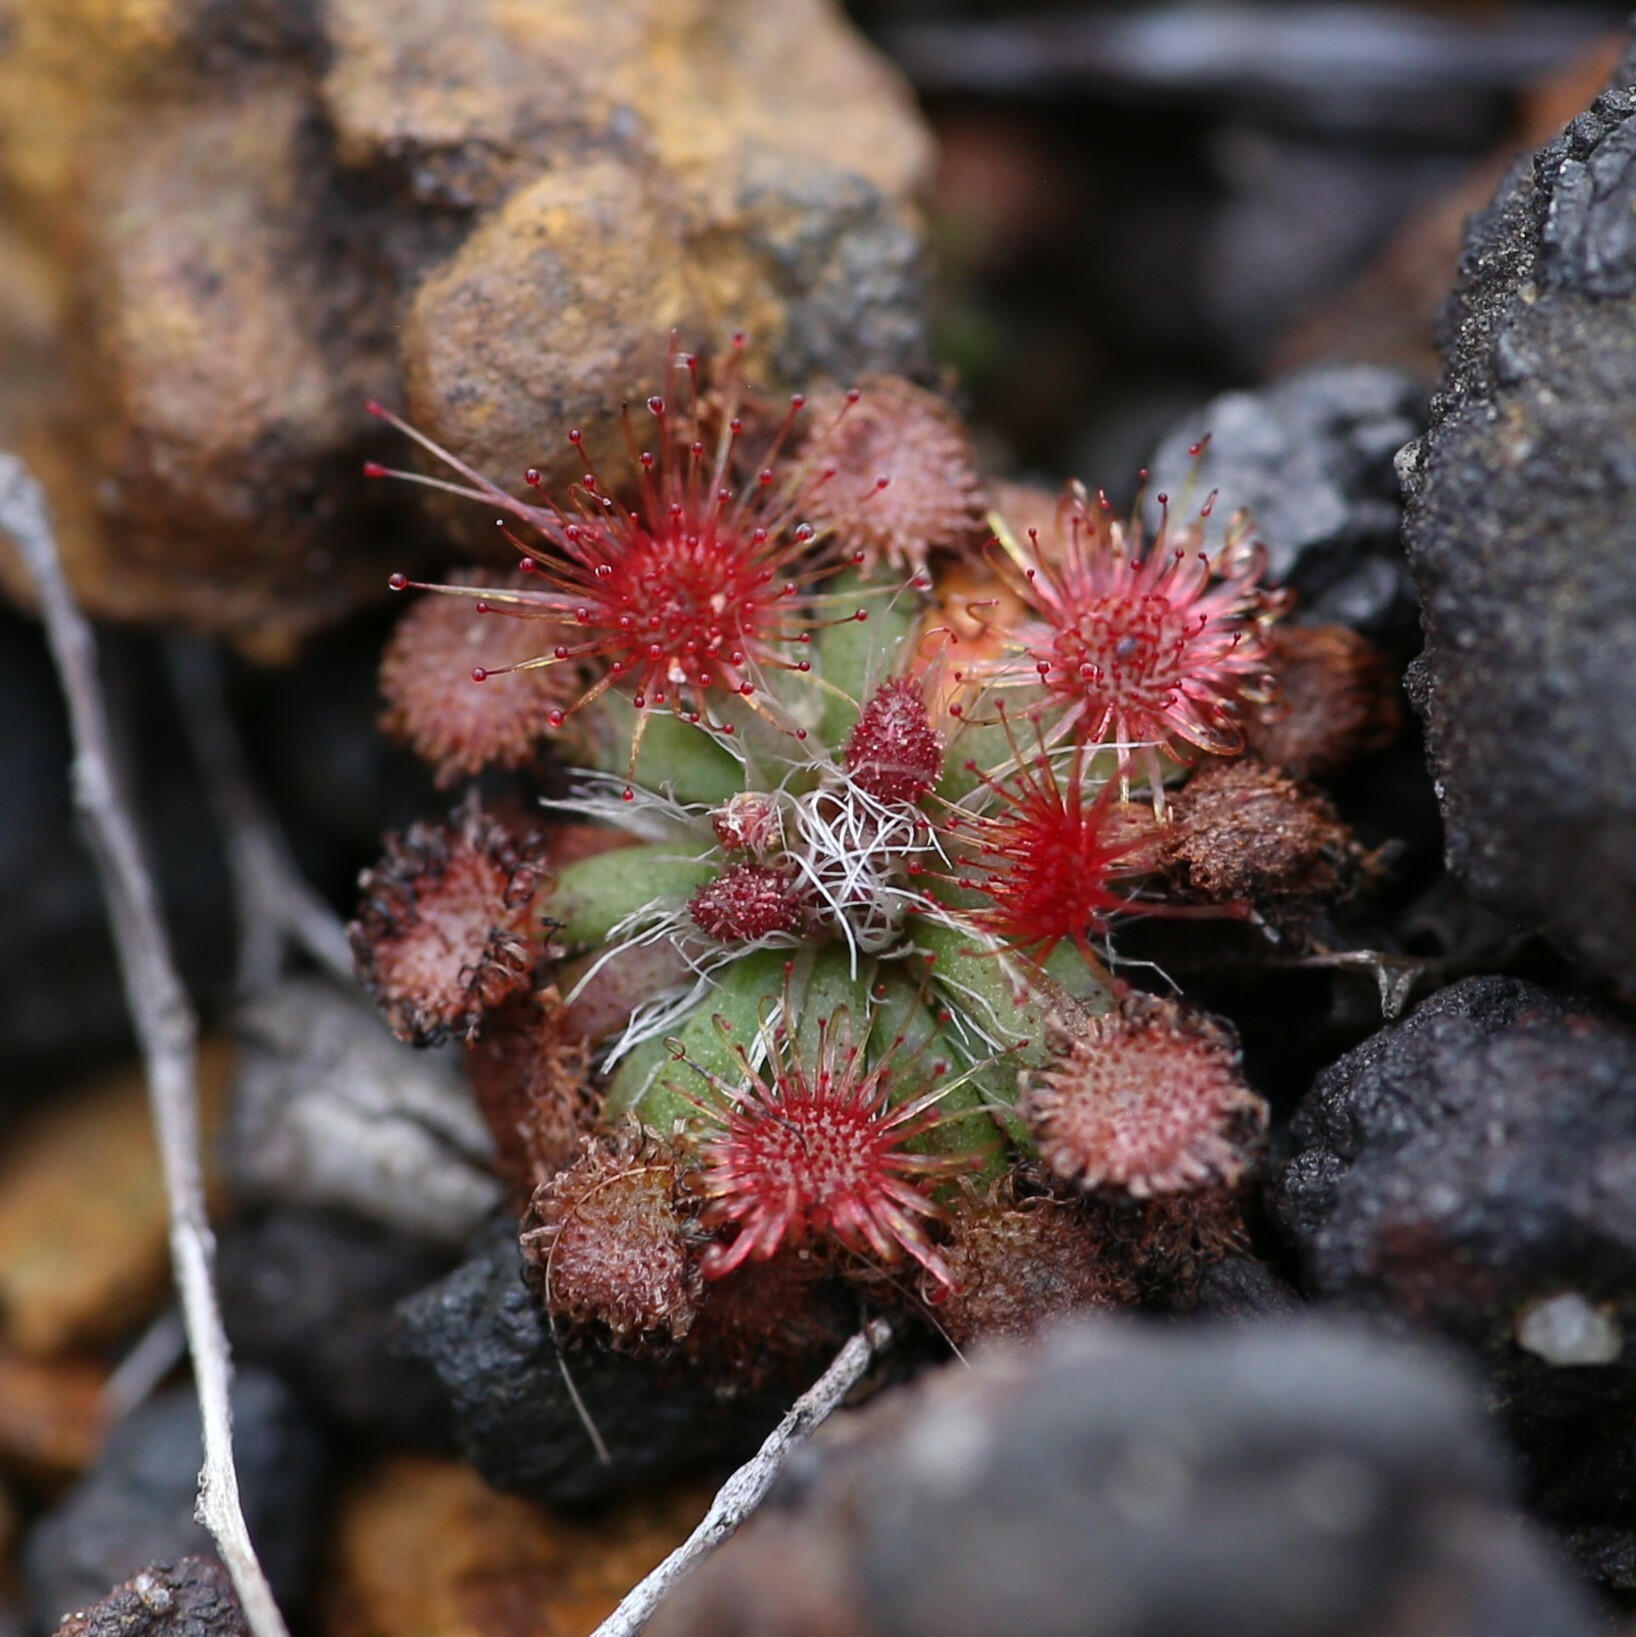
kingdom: Plantae
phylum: Tracheophyta
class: Magnoliopsida
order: Caryophyllales
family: Droseraceae
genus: Drosera
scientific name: Drosera platystigma
